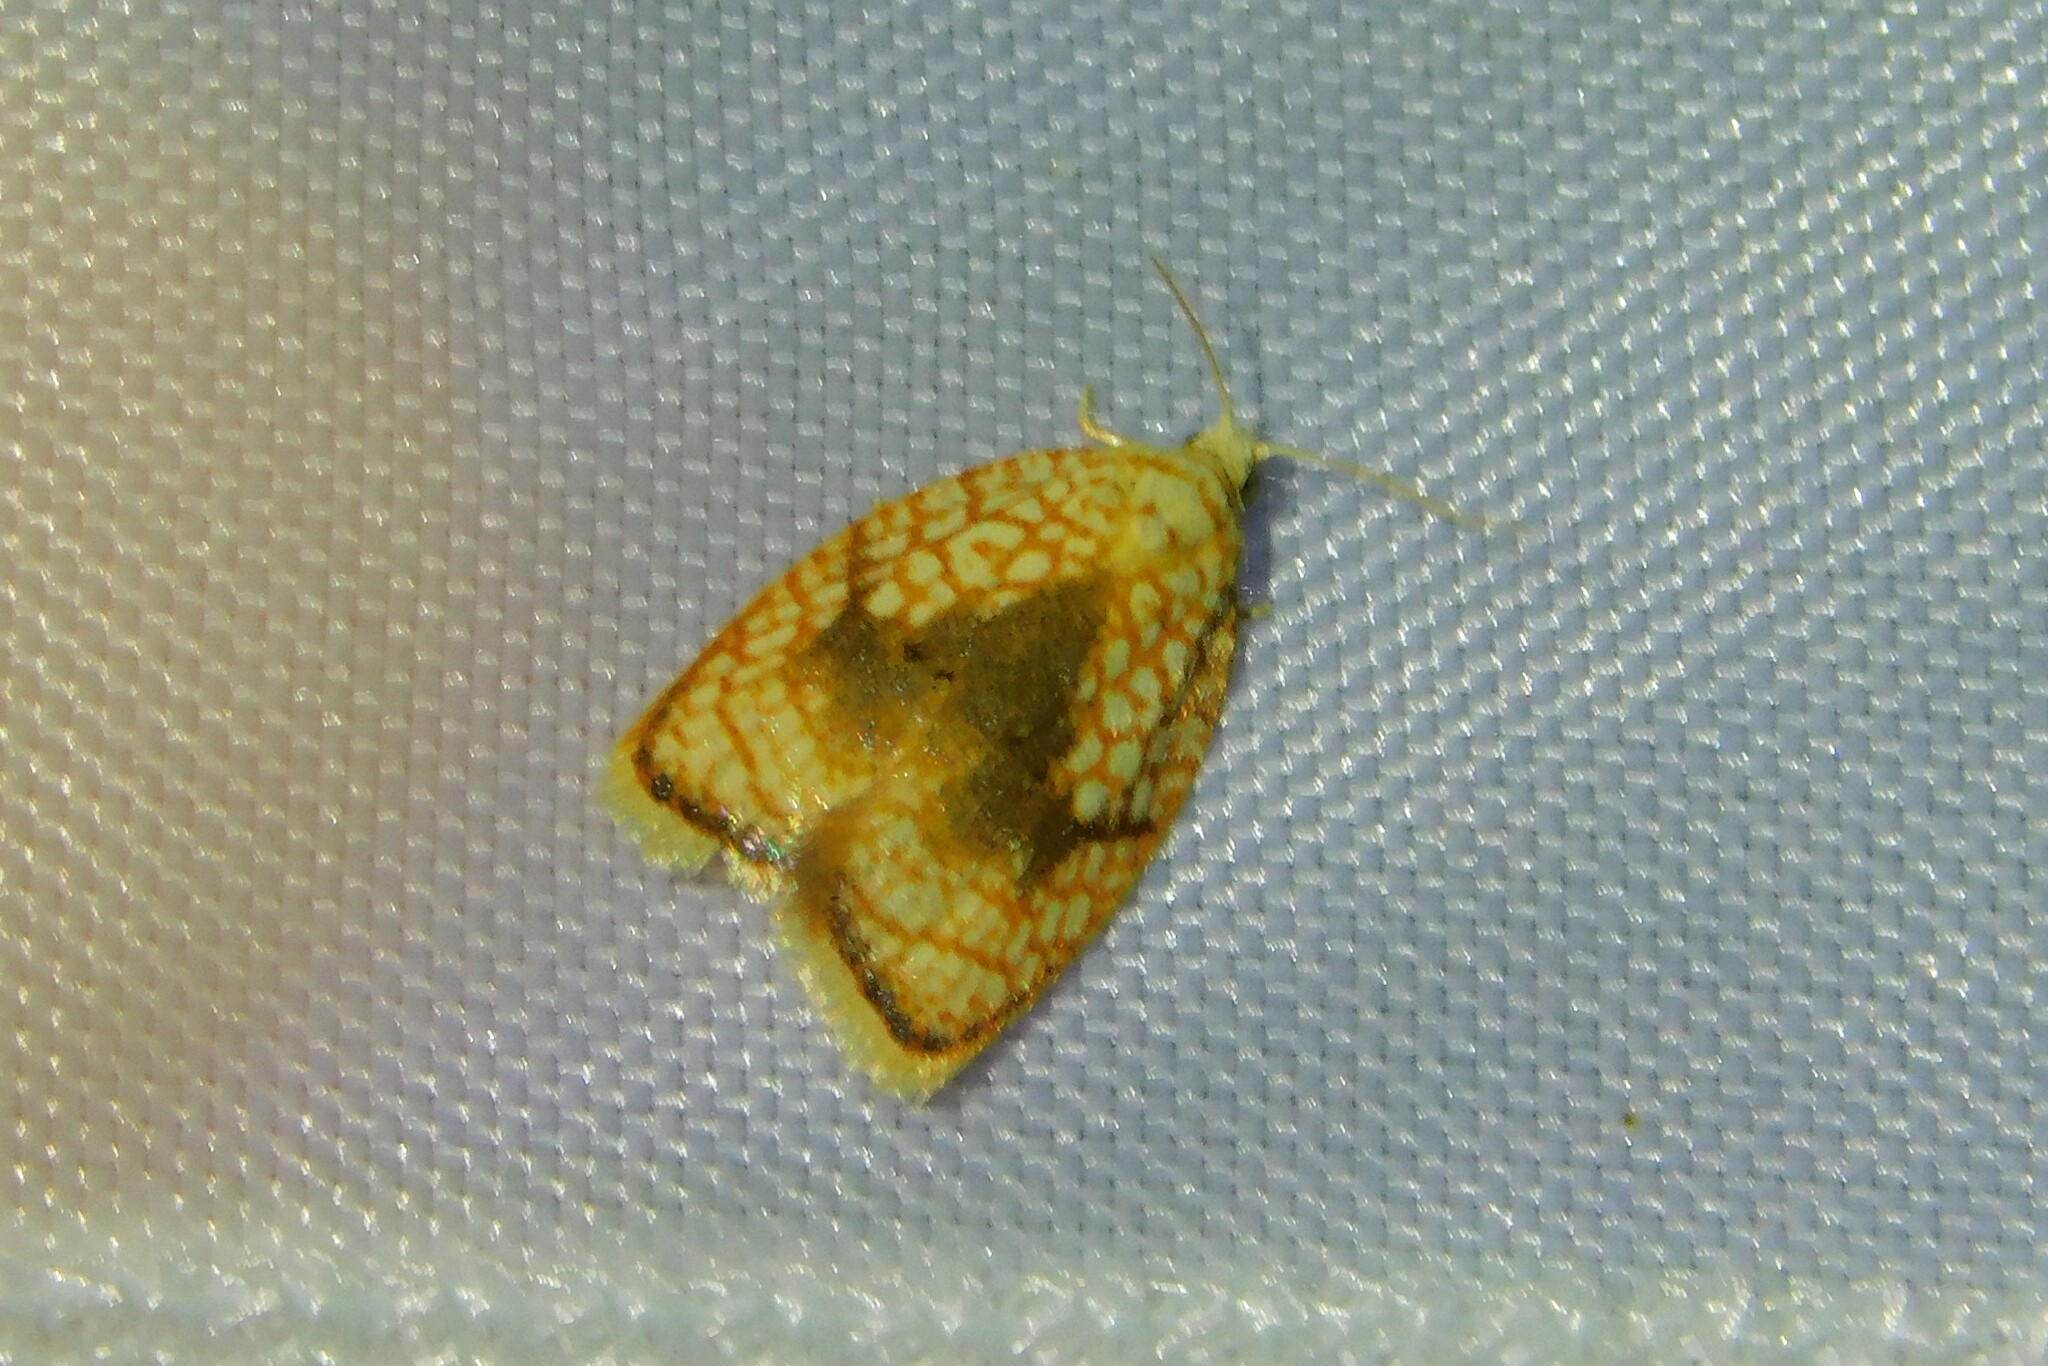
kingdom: Animalia
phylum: Arthropoda
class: Insecta
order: Lepidoptera
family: Tortricidae
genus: Acleris
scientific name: Acleris forsskaleana
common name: Maple button
